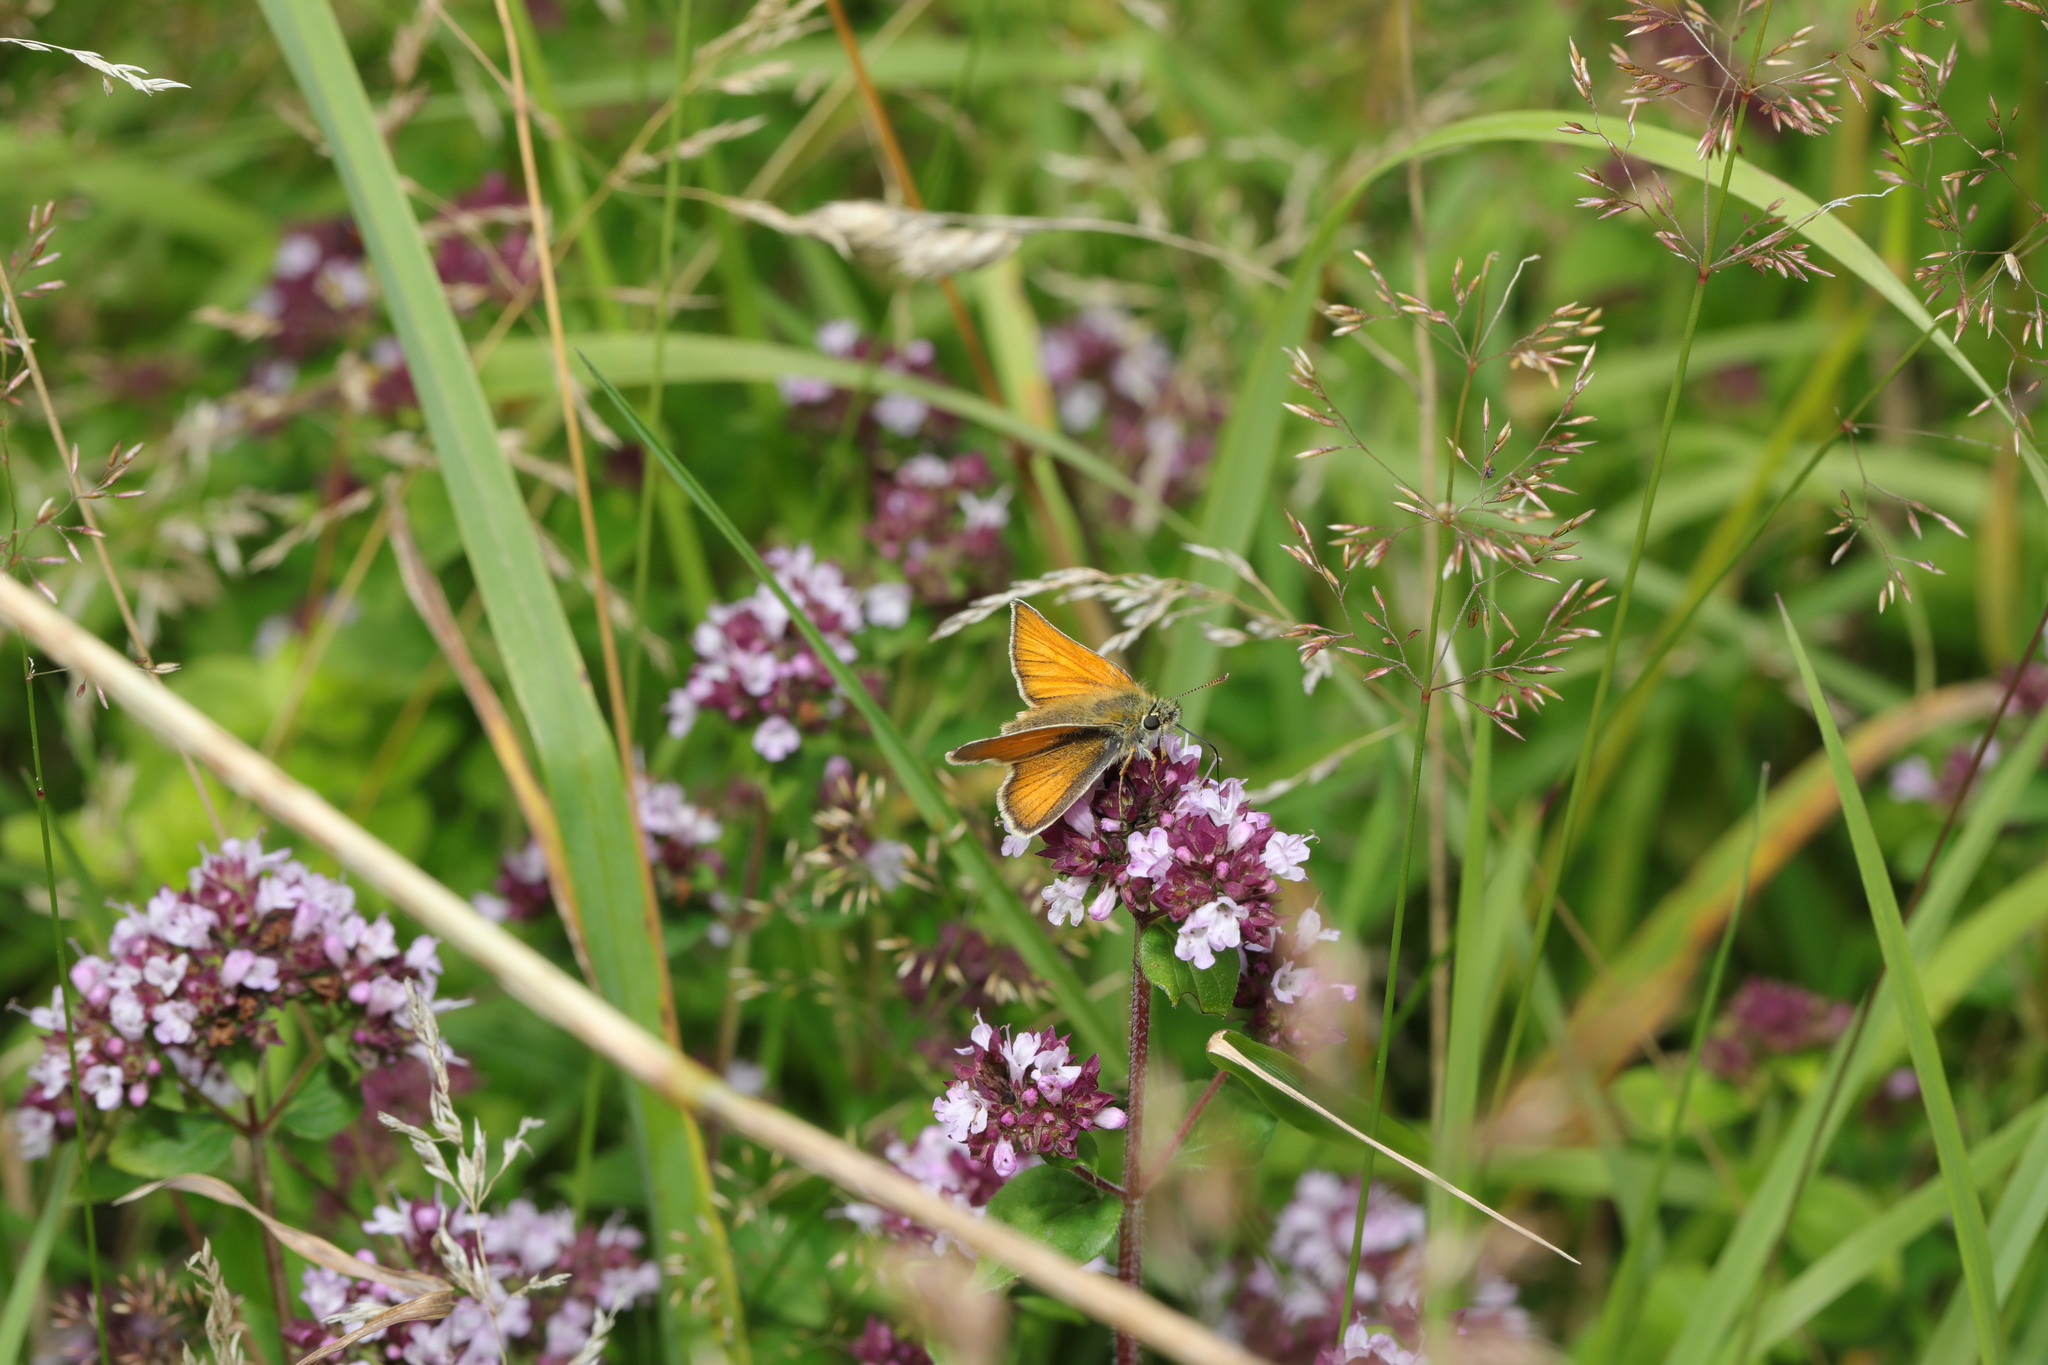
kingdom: Animalia
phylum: Arthropoda
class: Insecta
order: Lepidoptera
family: Hesperiidae
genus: Thymelicus
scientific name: Thymelicus sylvestris
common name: Small skipper
